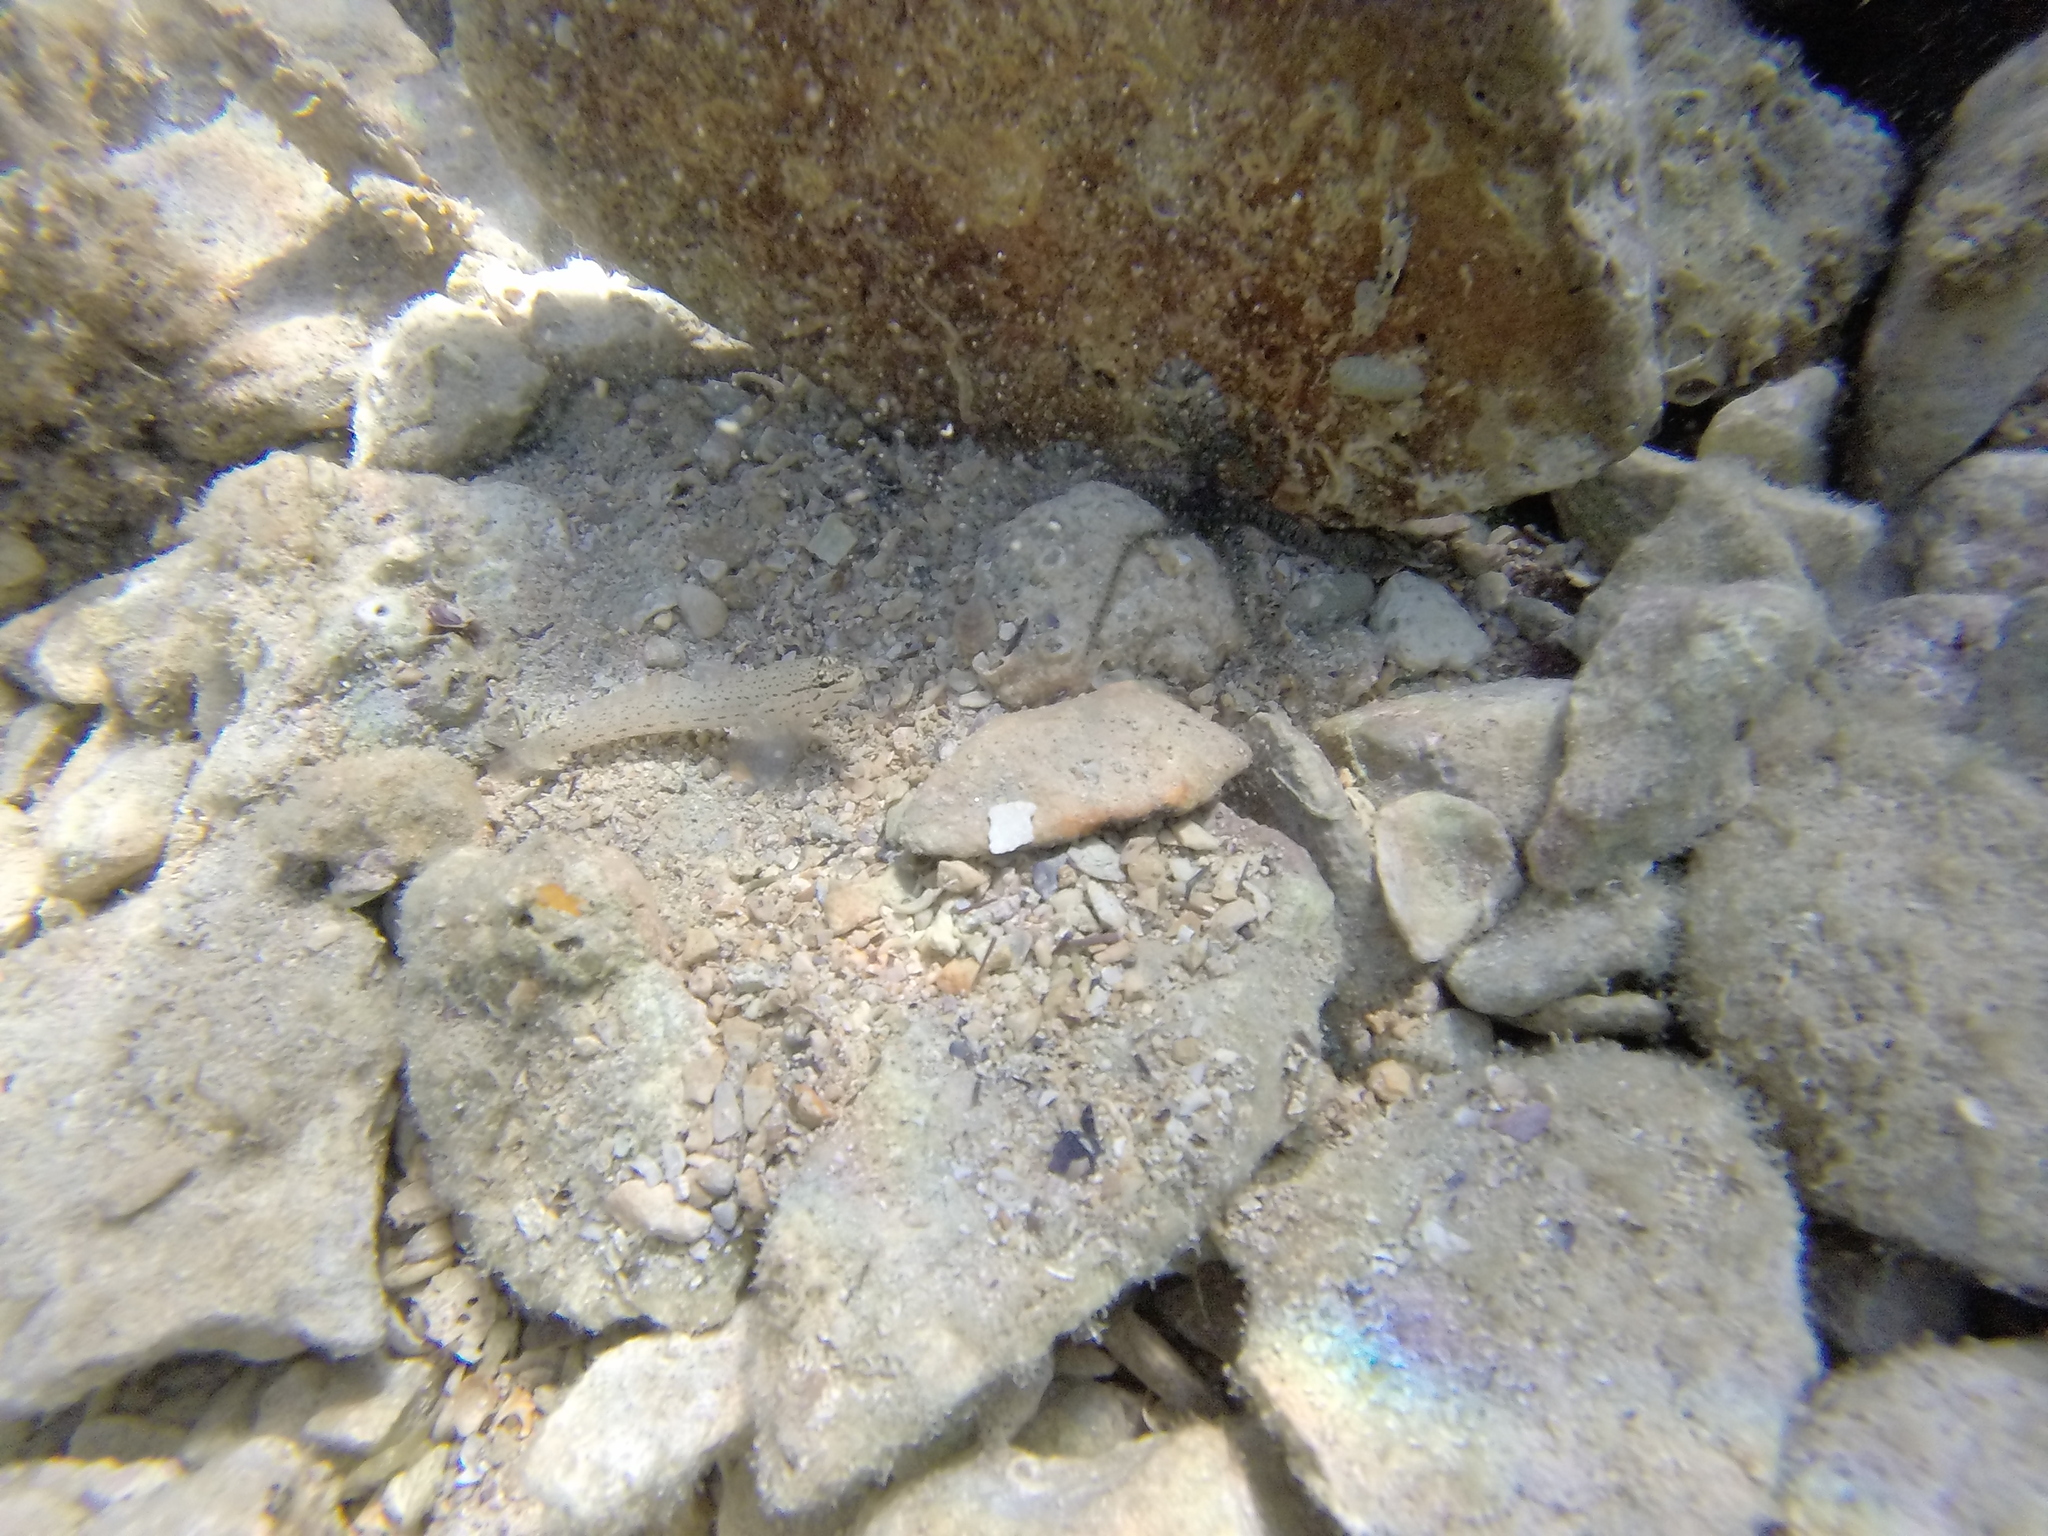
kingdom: Animalia
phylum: Chordata
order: Perciformes
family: Gobiidae
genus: Gobius
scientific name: Gobius bucchichi
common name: Bucchich's goby
